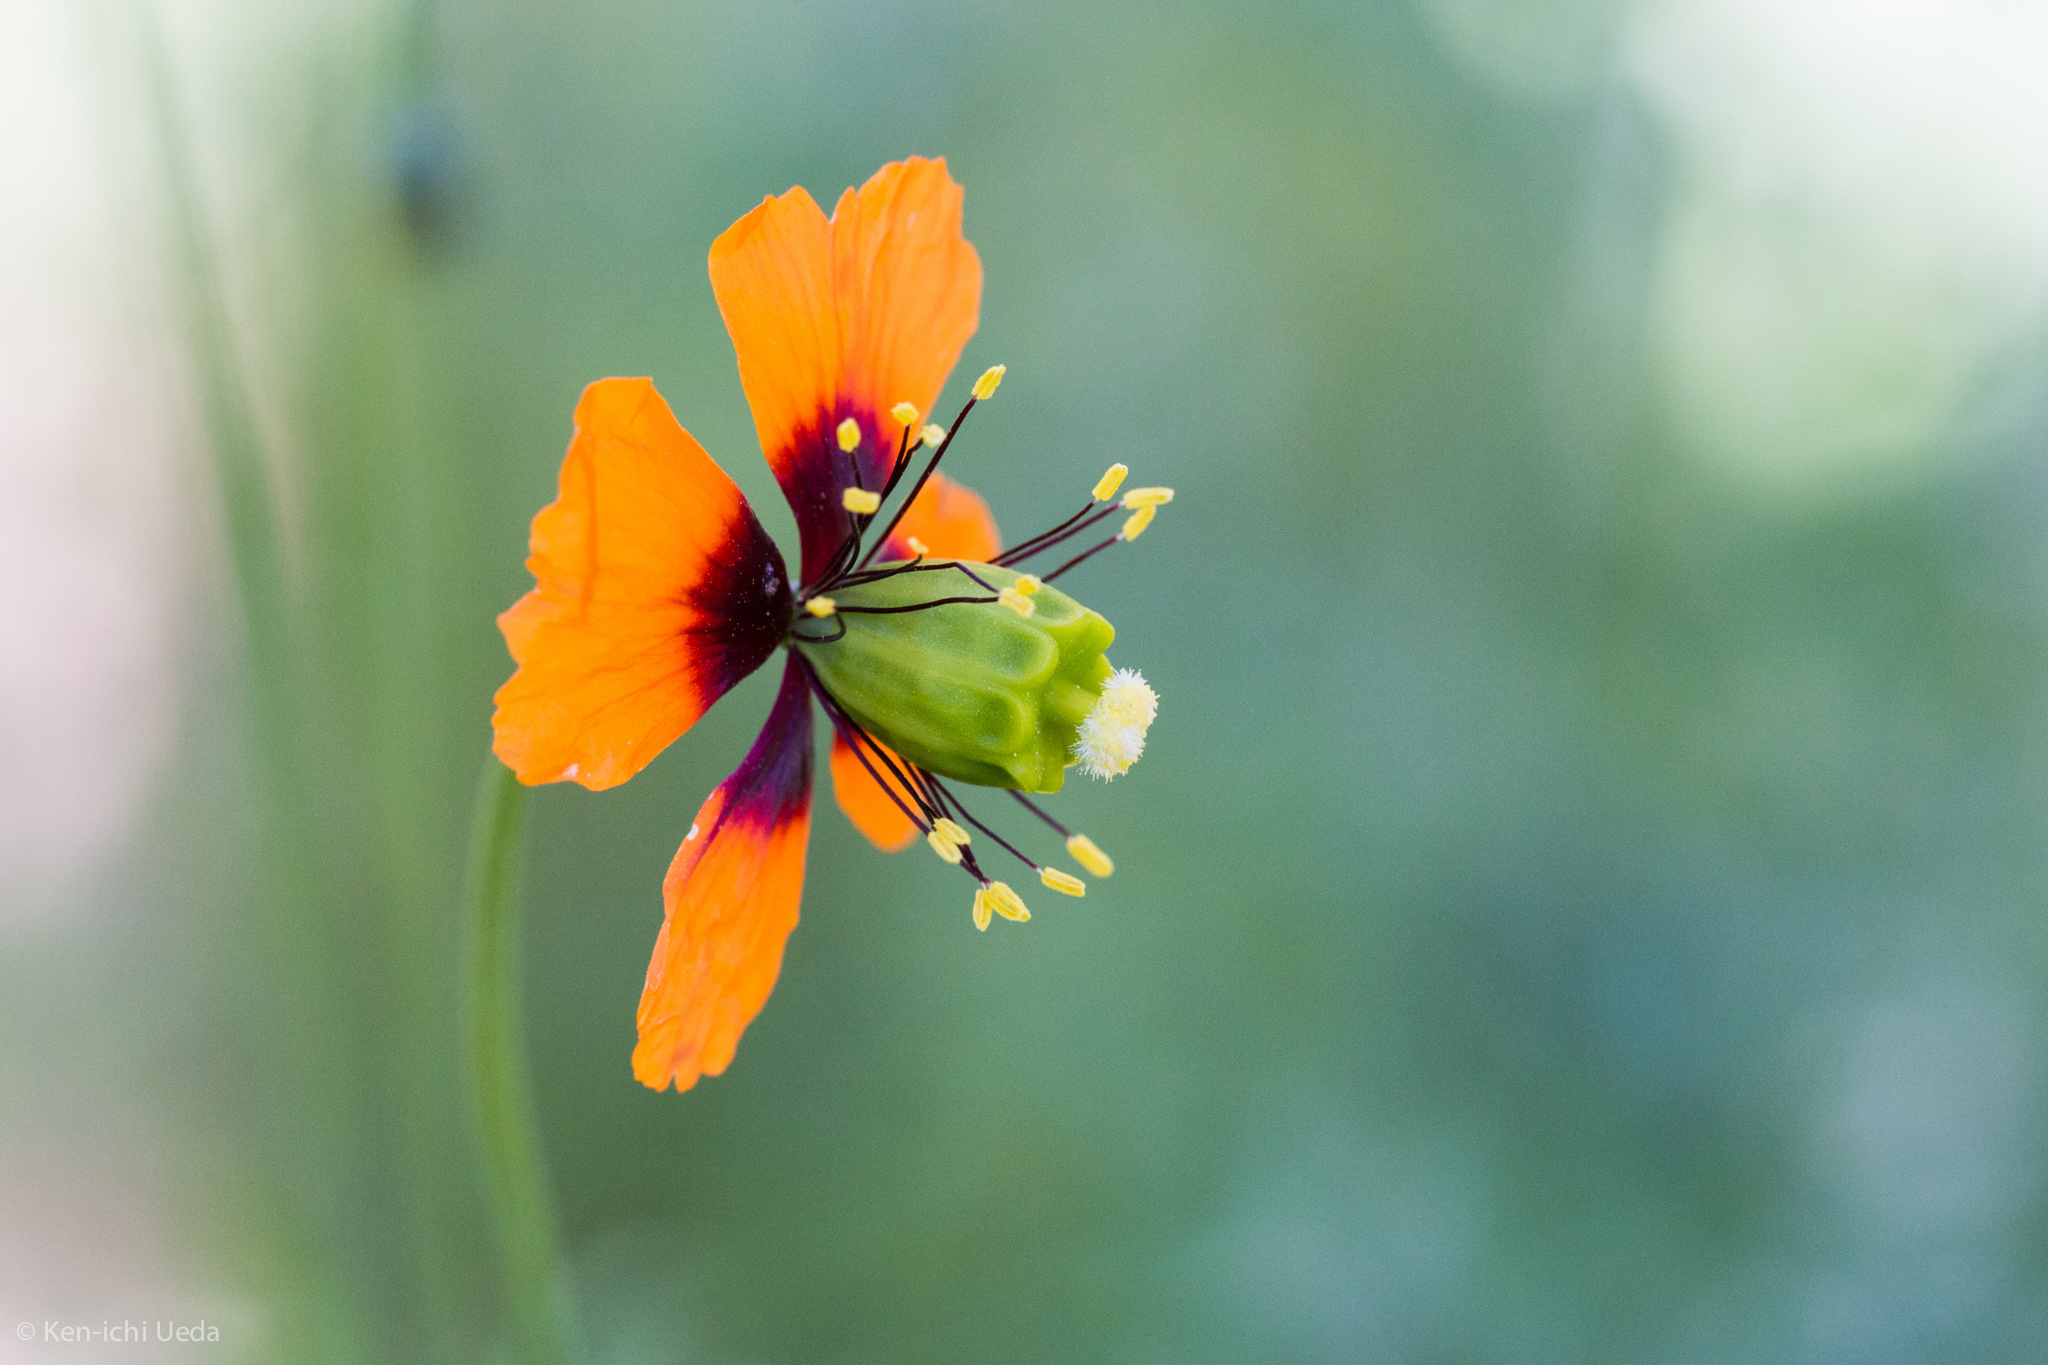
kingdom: Plantae
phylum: Tracheophyta
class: Magnoliopsida
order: Ranunculales
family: Papaveraceae
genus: Stylomecon
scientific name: Stylomecon heterophylla
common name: Flaming-poppy
